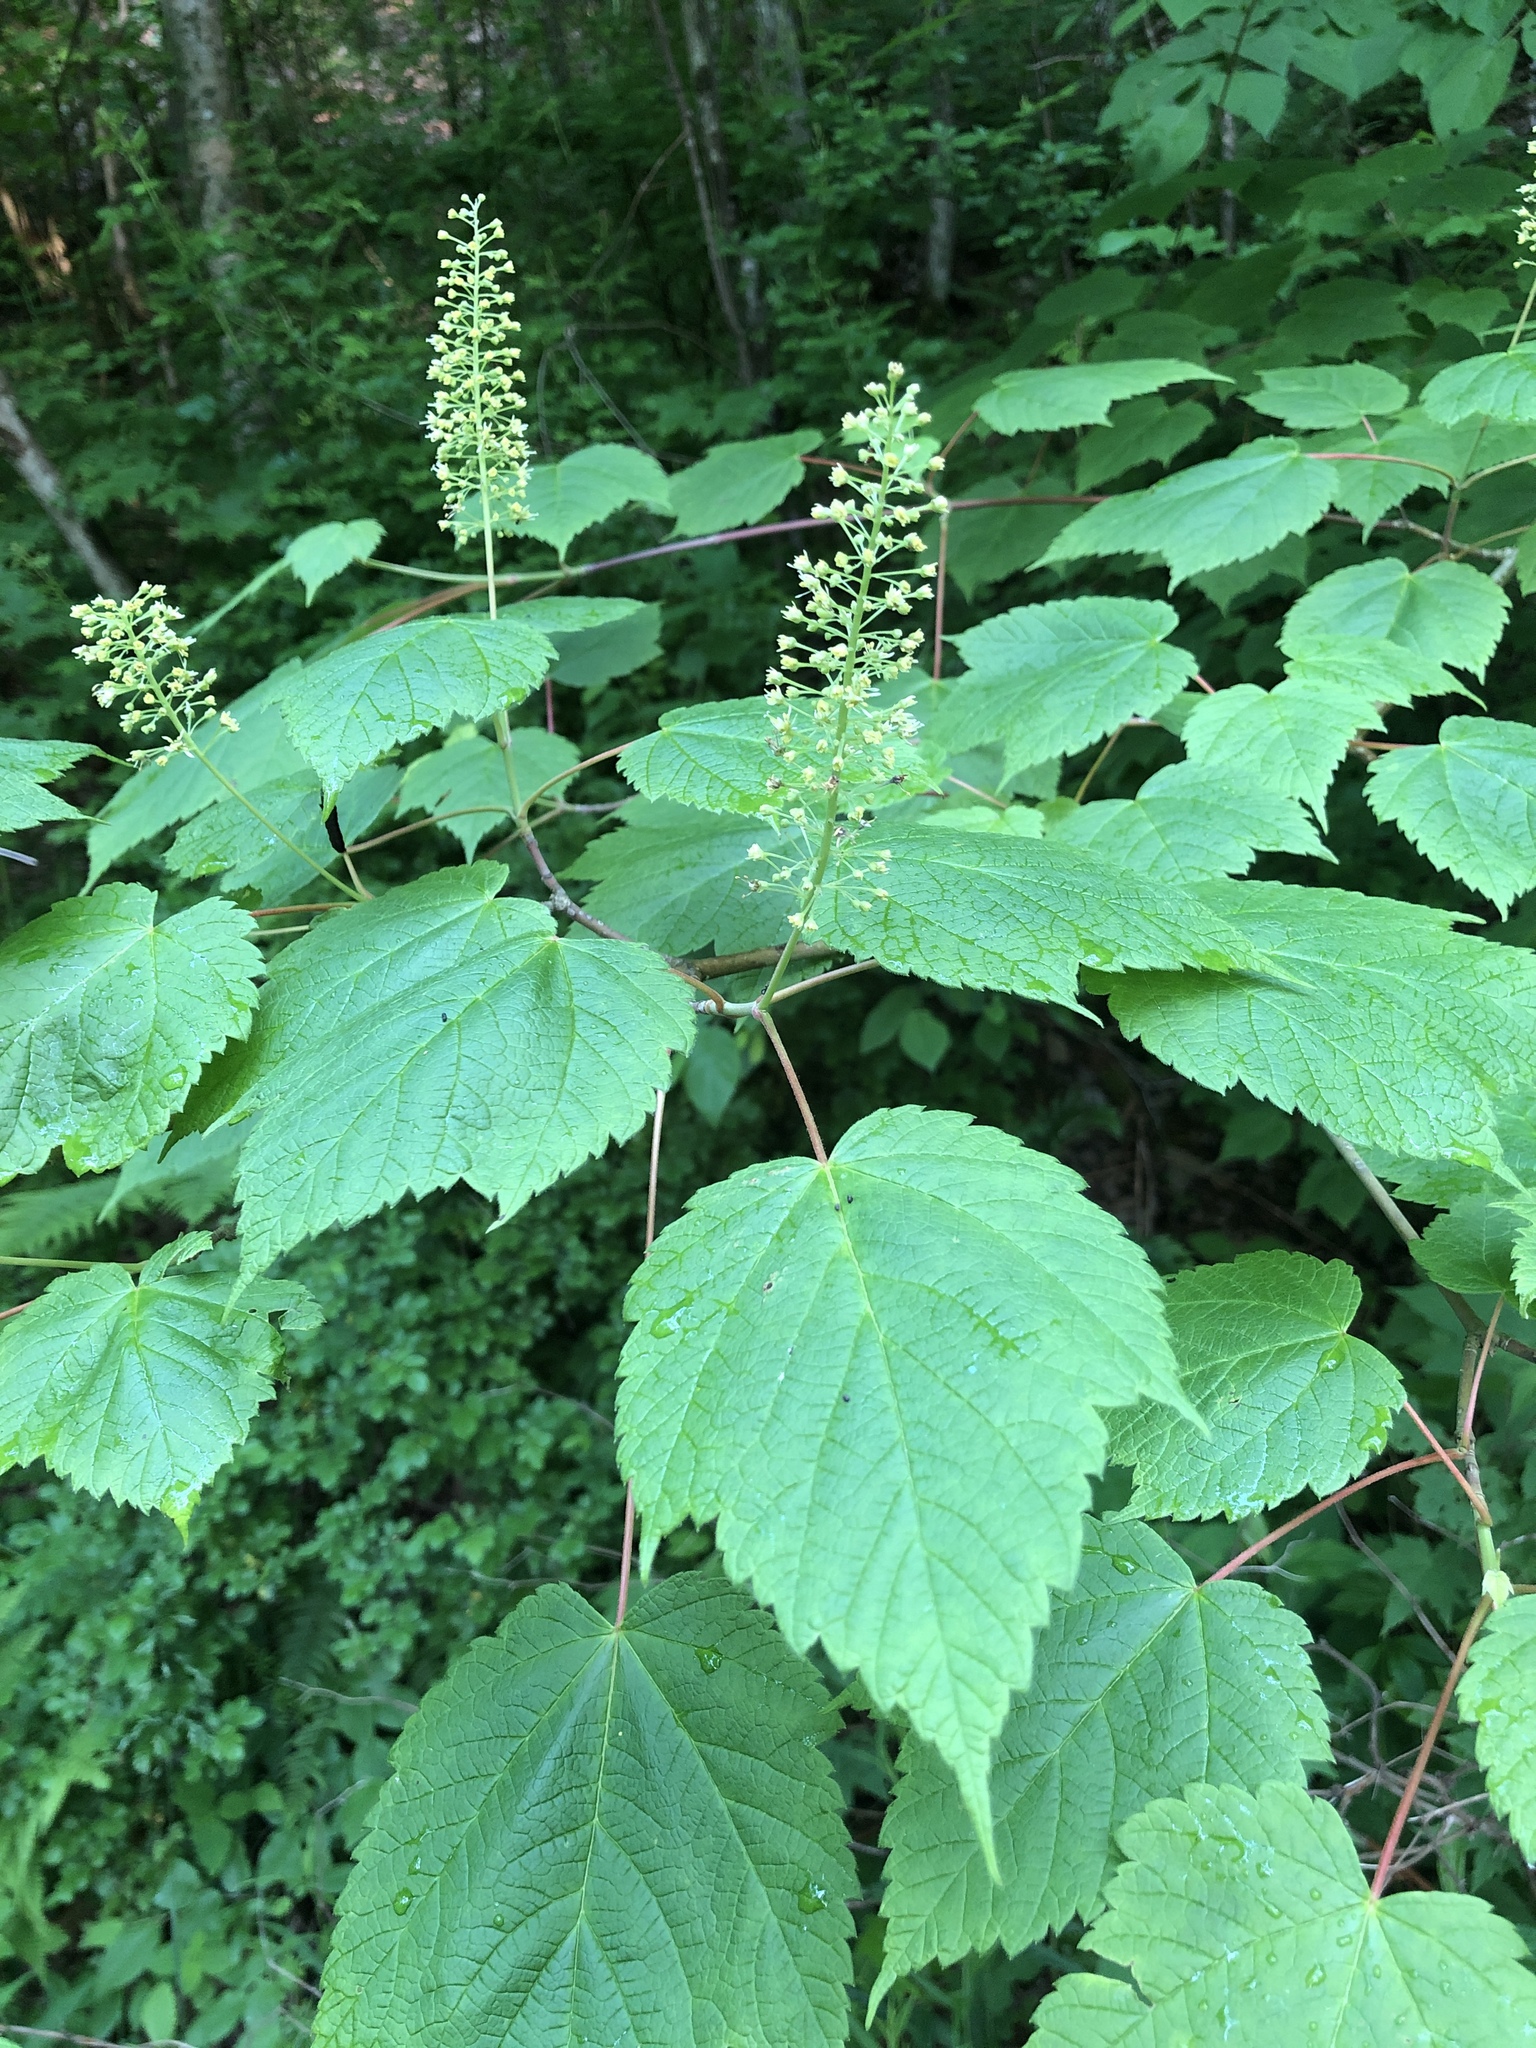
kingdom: Plantae
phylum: Tracheophyta
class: Magnoliopsida
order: Sapindales
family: Sapindaceae
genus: Acer
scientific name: Acer spicatum
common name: Mountain maple
